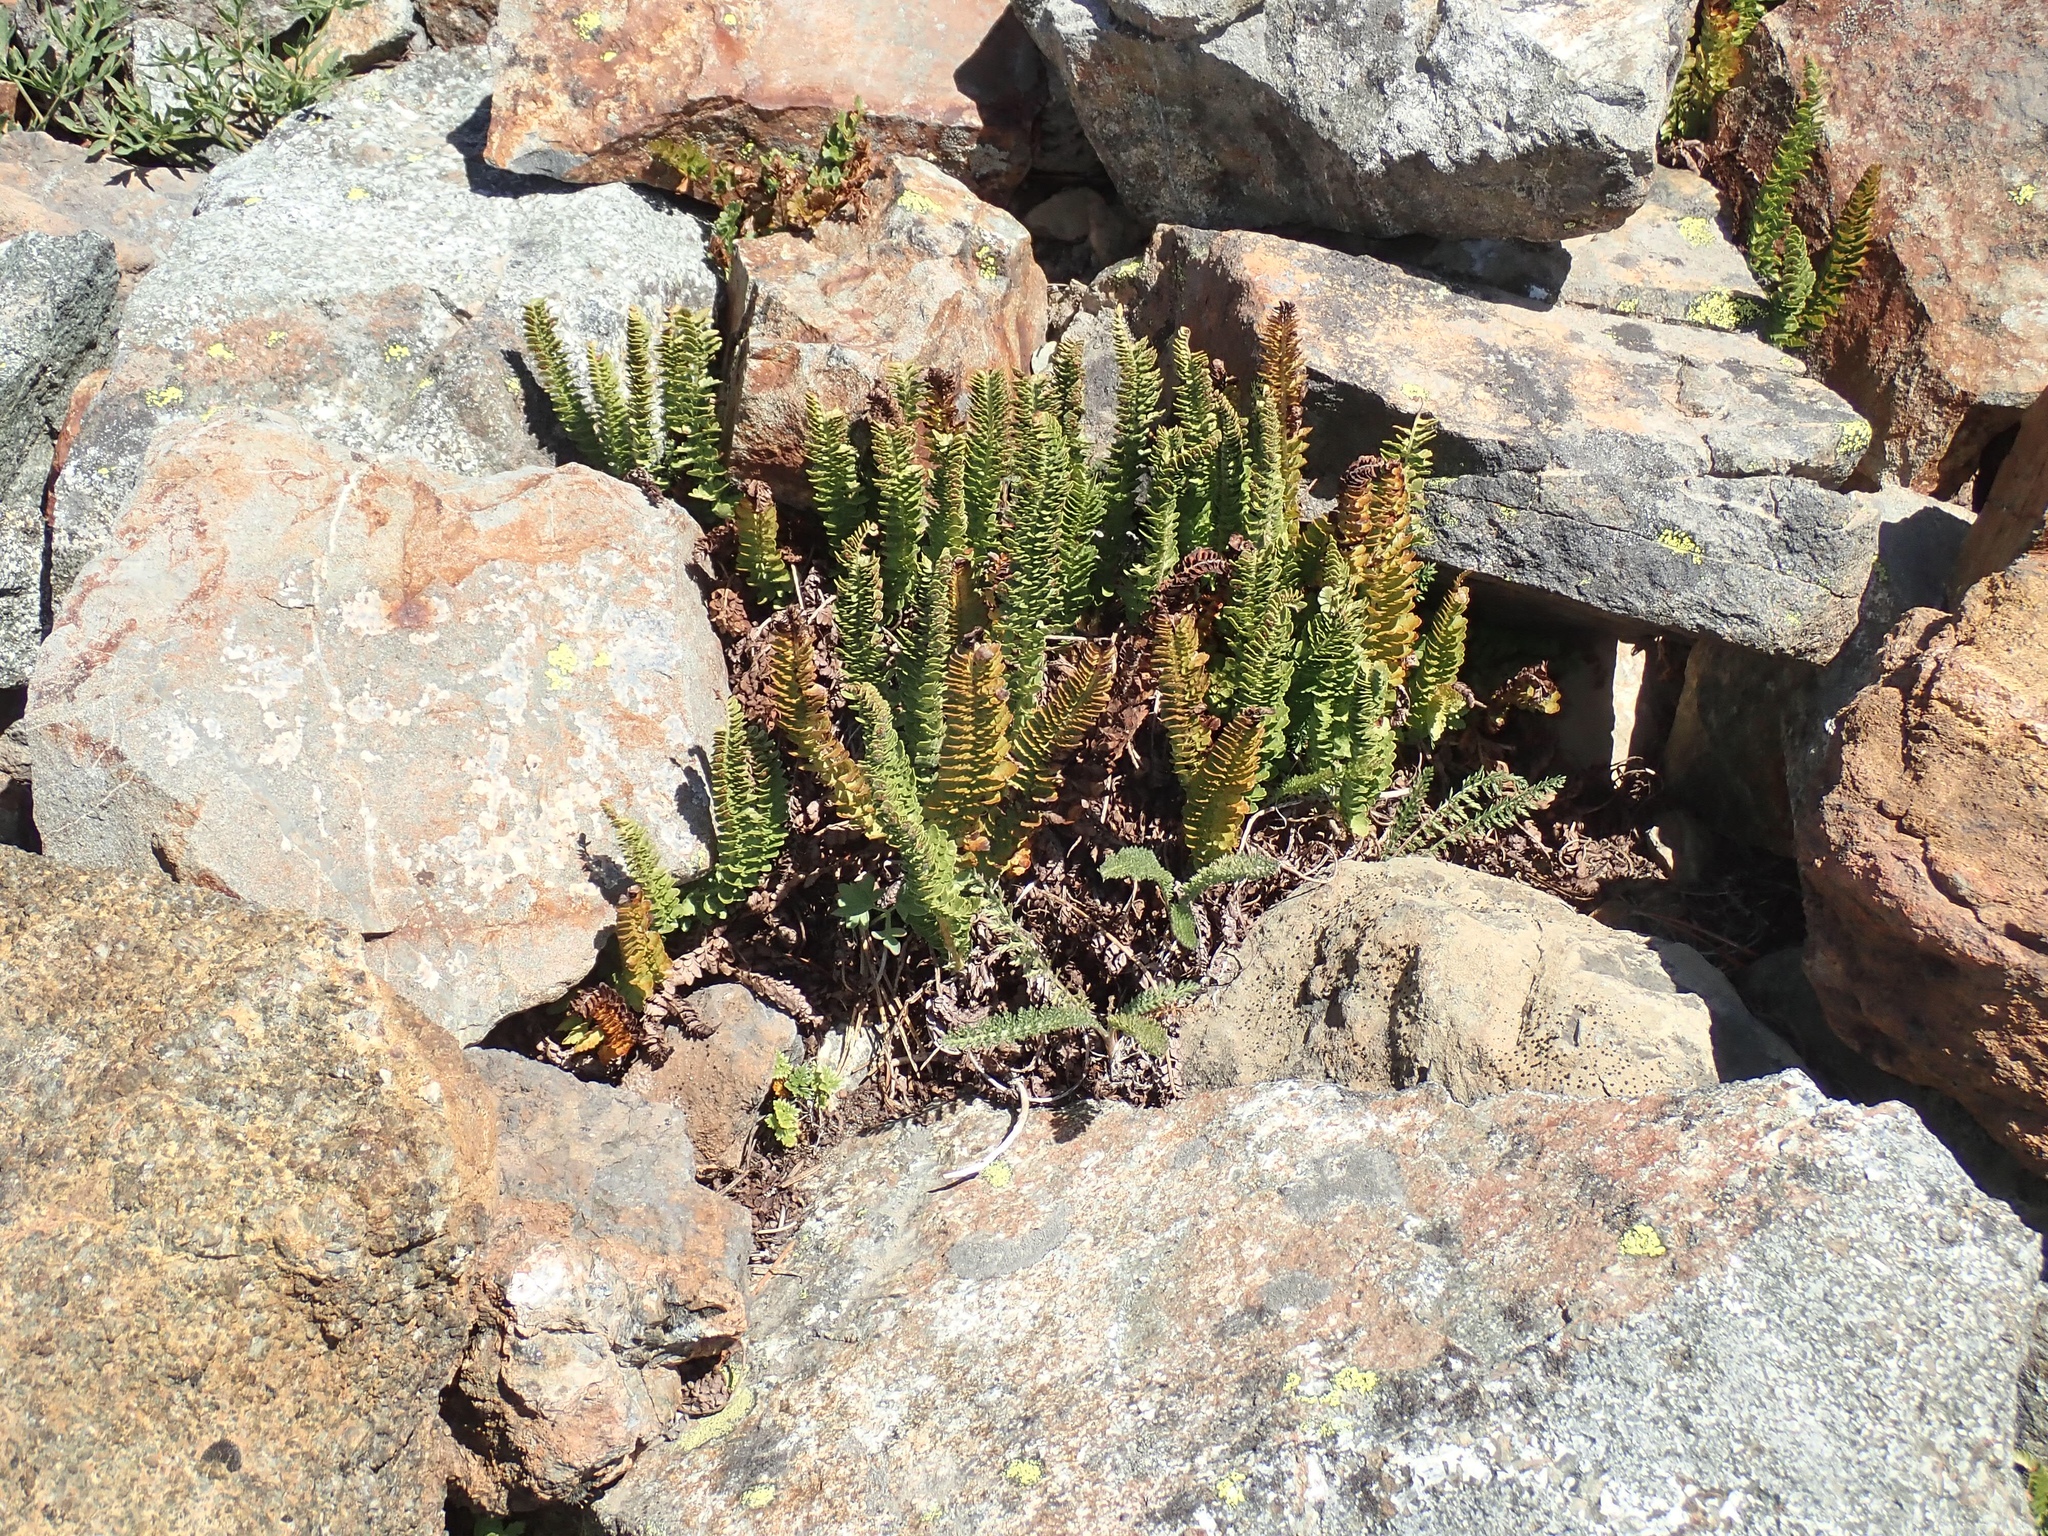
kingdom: Plantae
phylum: Tracheophyta
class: Polypodiopsida
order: Polypodiales
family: Dryopteridaceae
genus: Polystichum
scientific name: Polystichum lemmonii
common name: Lemmon's holly fern
